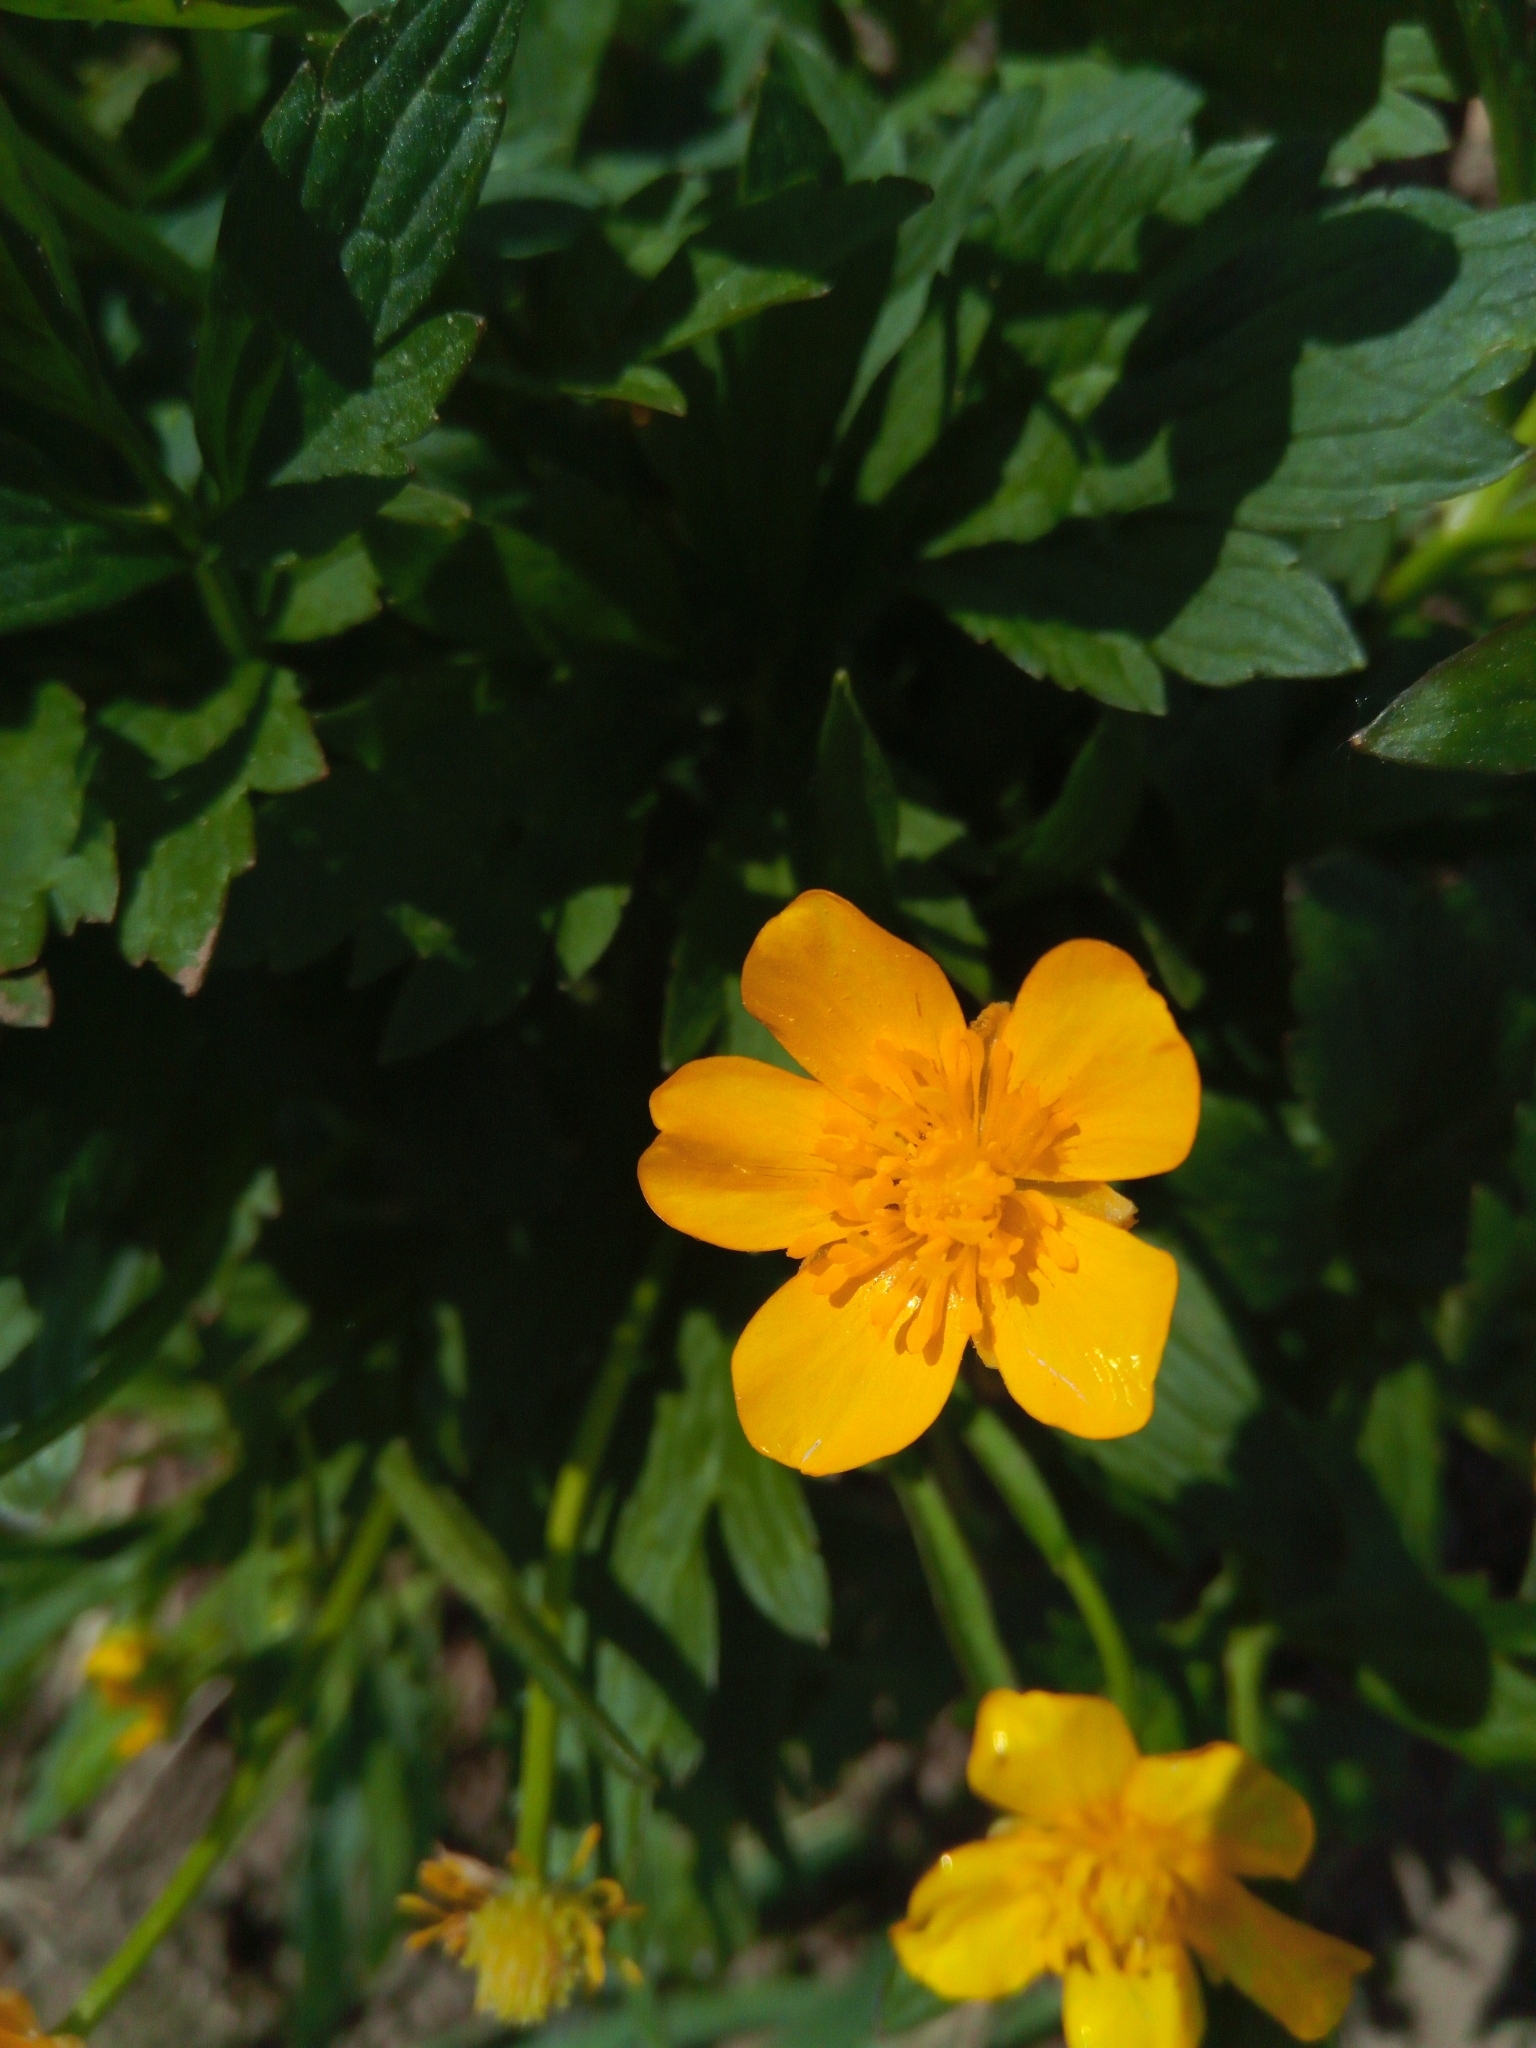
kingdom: Plantae
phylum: Tracheophyta
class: Magnoliopsida
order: Ranunculales
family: Ranunculaceae
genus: Ranunculus
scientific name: Ranunculus repens
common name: Creeping buttercup
